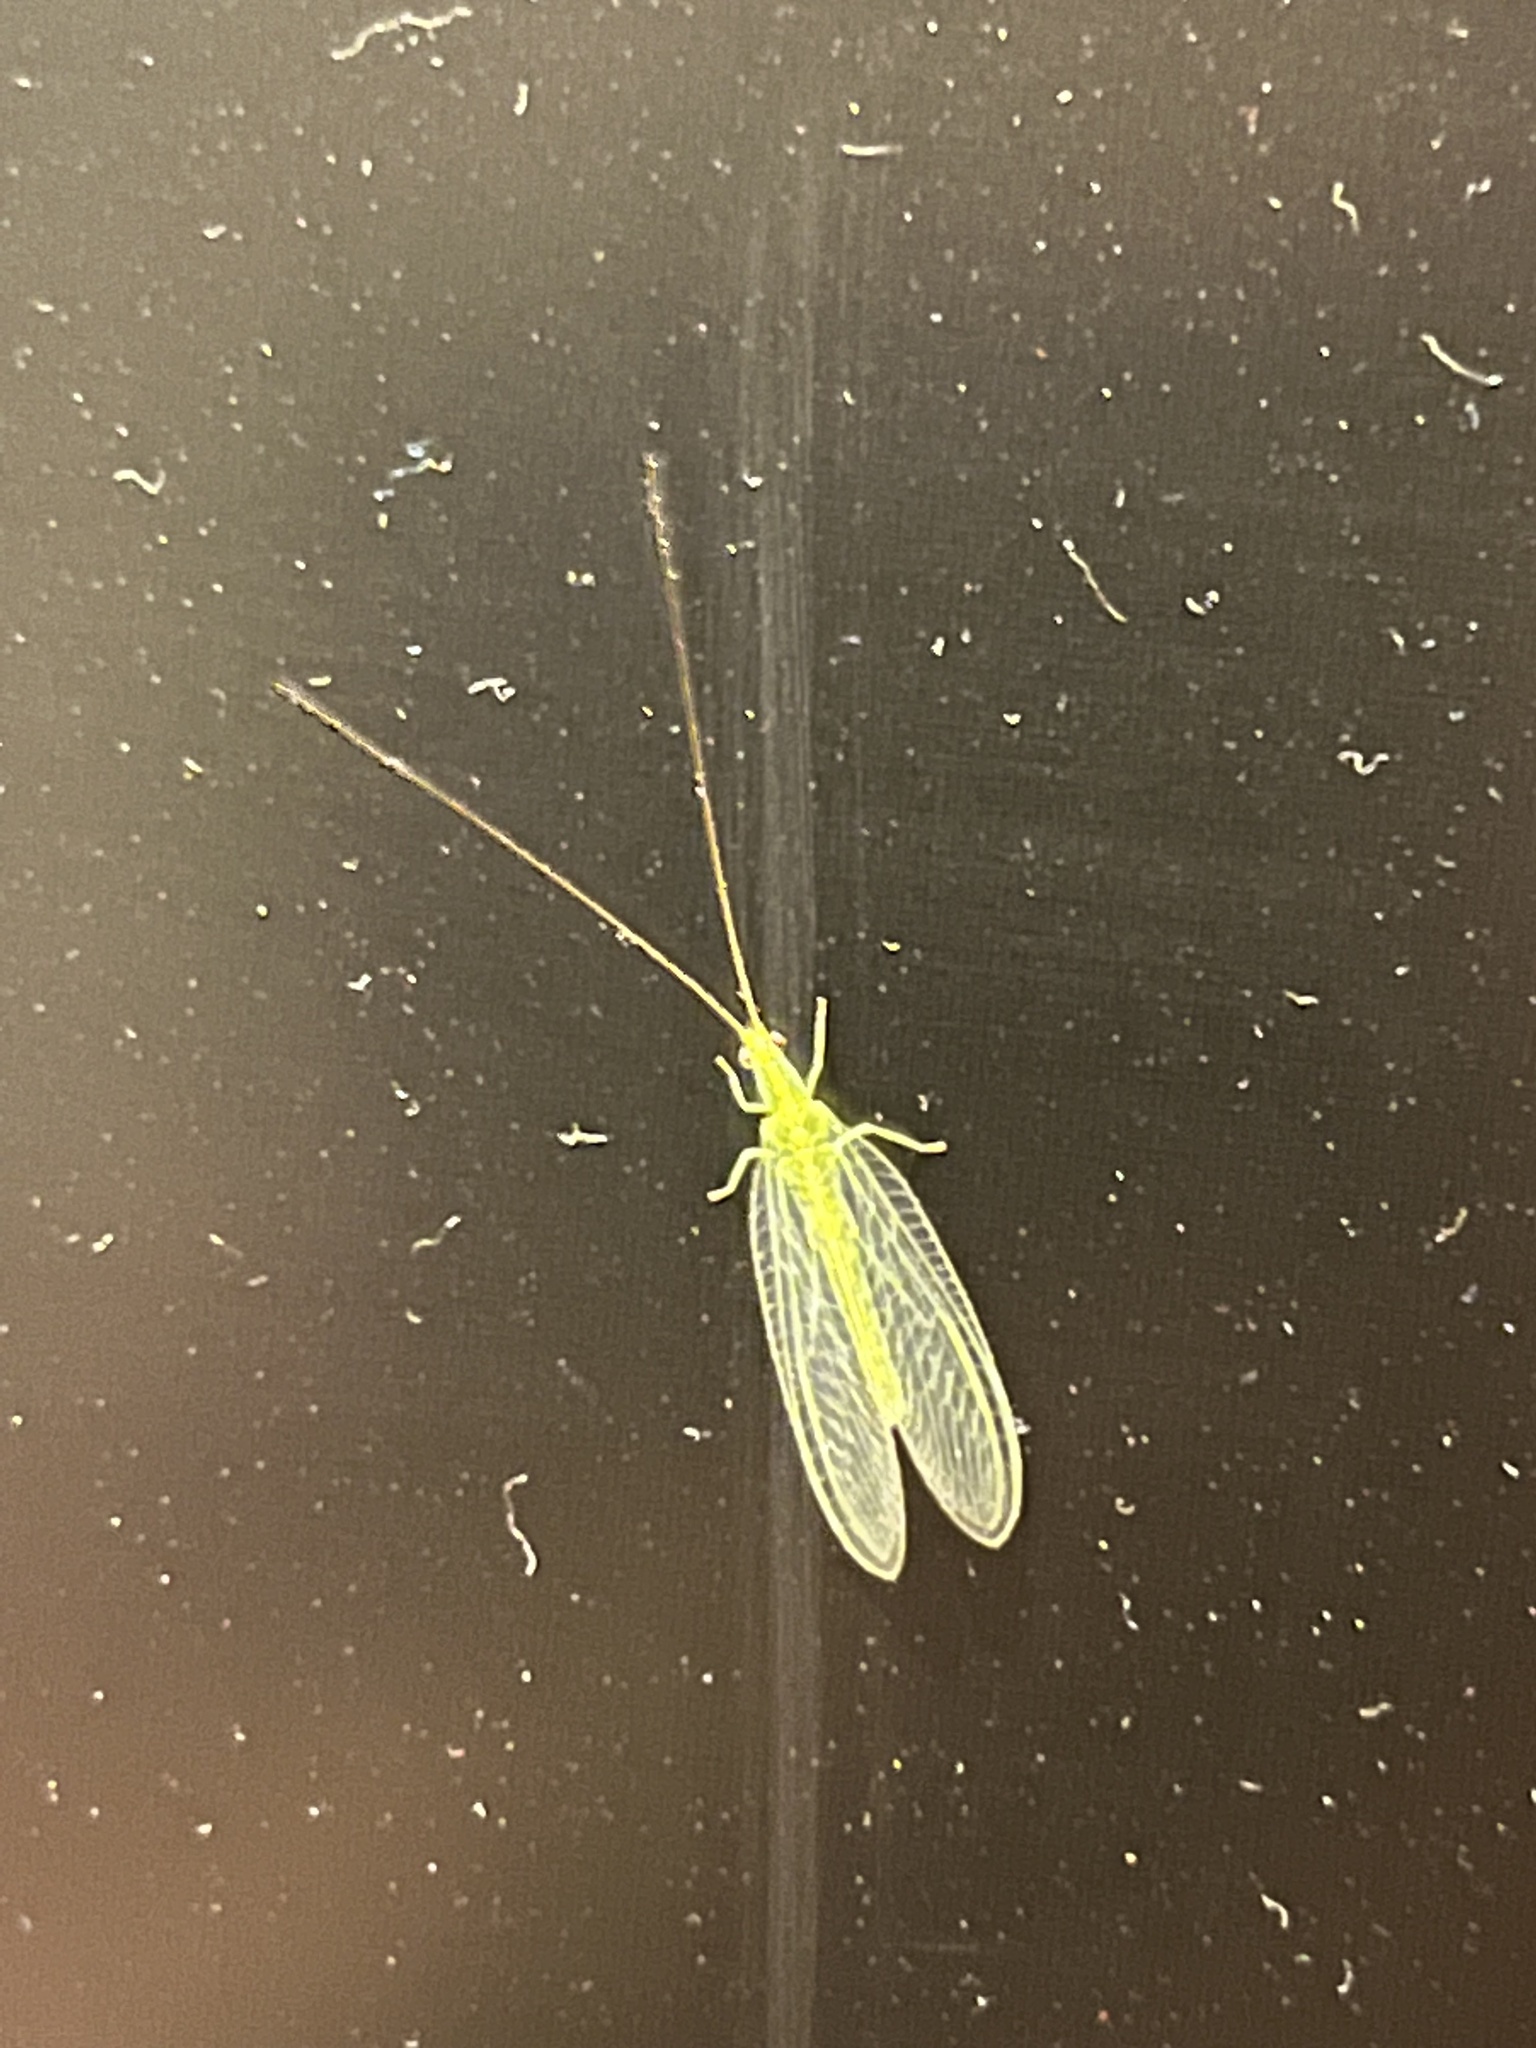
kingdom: Animalia
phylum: Arthropoda
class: Insecta
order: Neuroptera
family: Chrysopidae
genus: Mallada
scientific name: Mallada basalis
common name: Green lacewing
